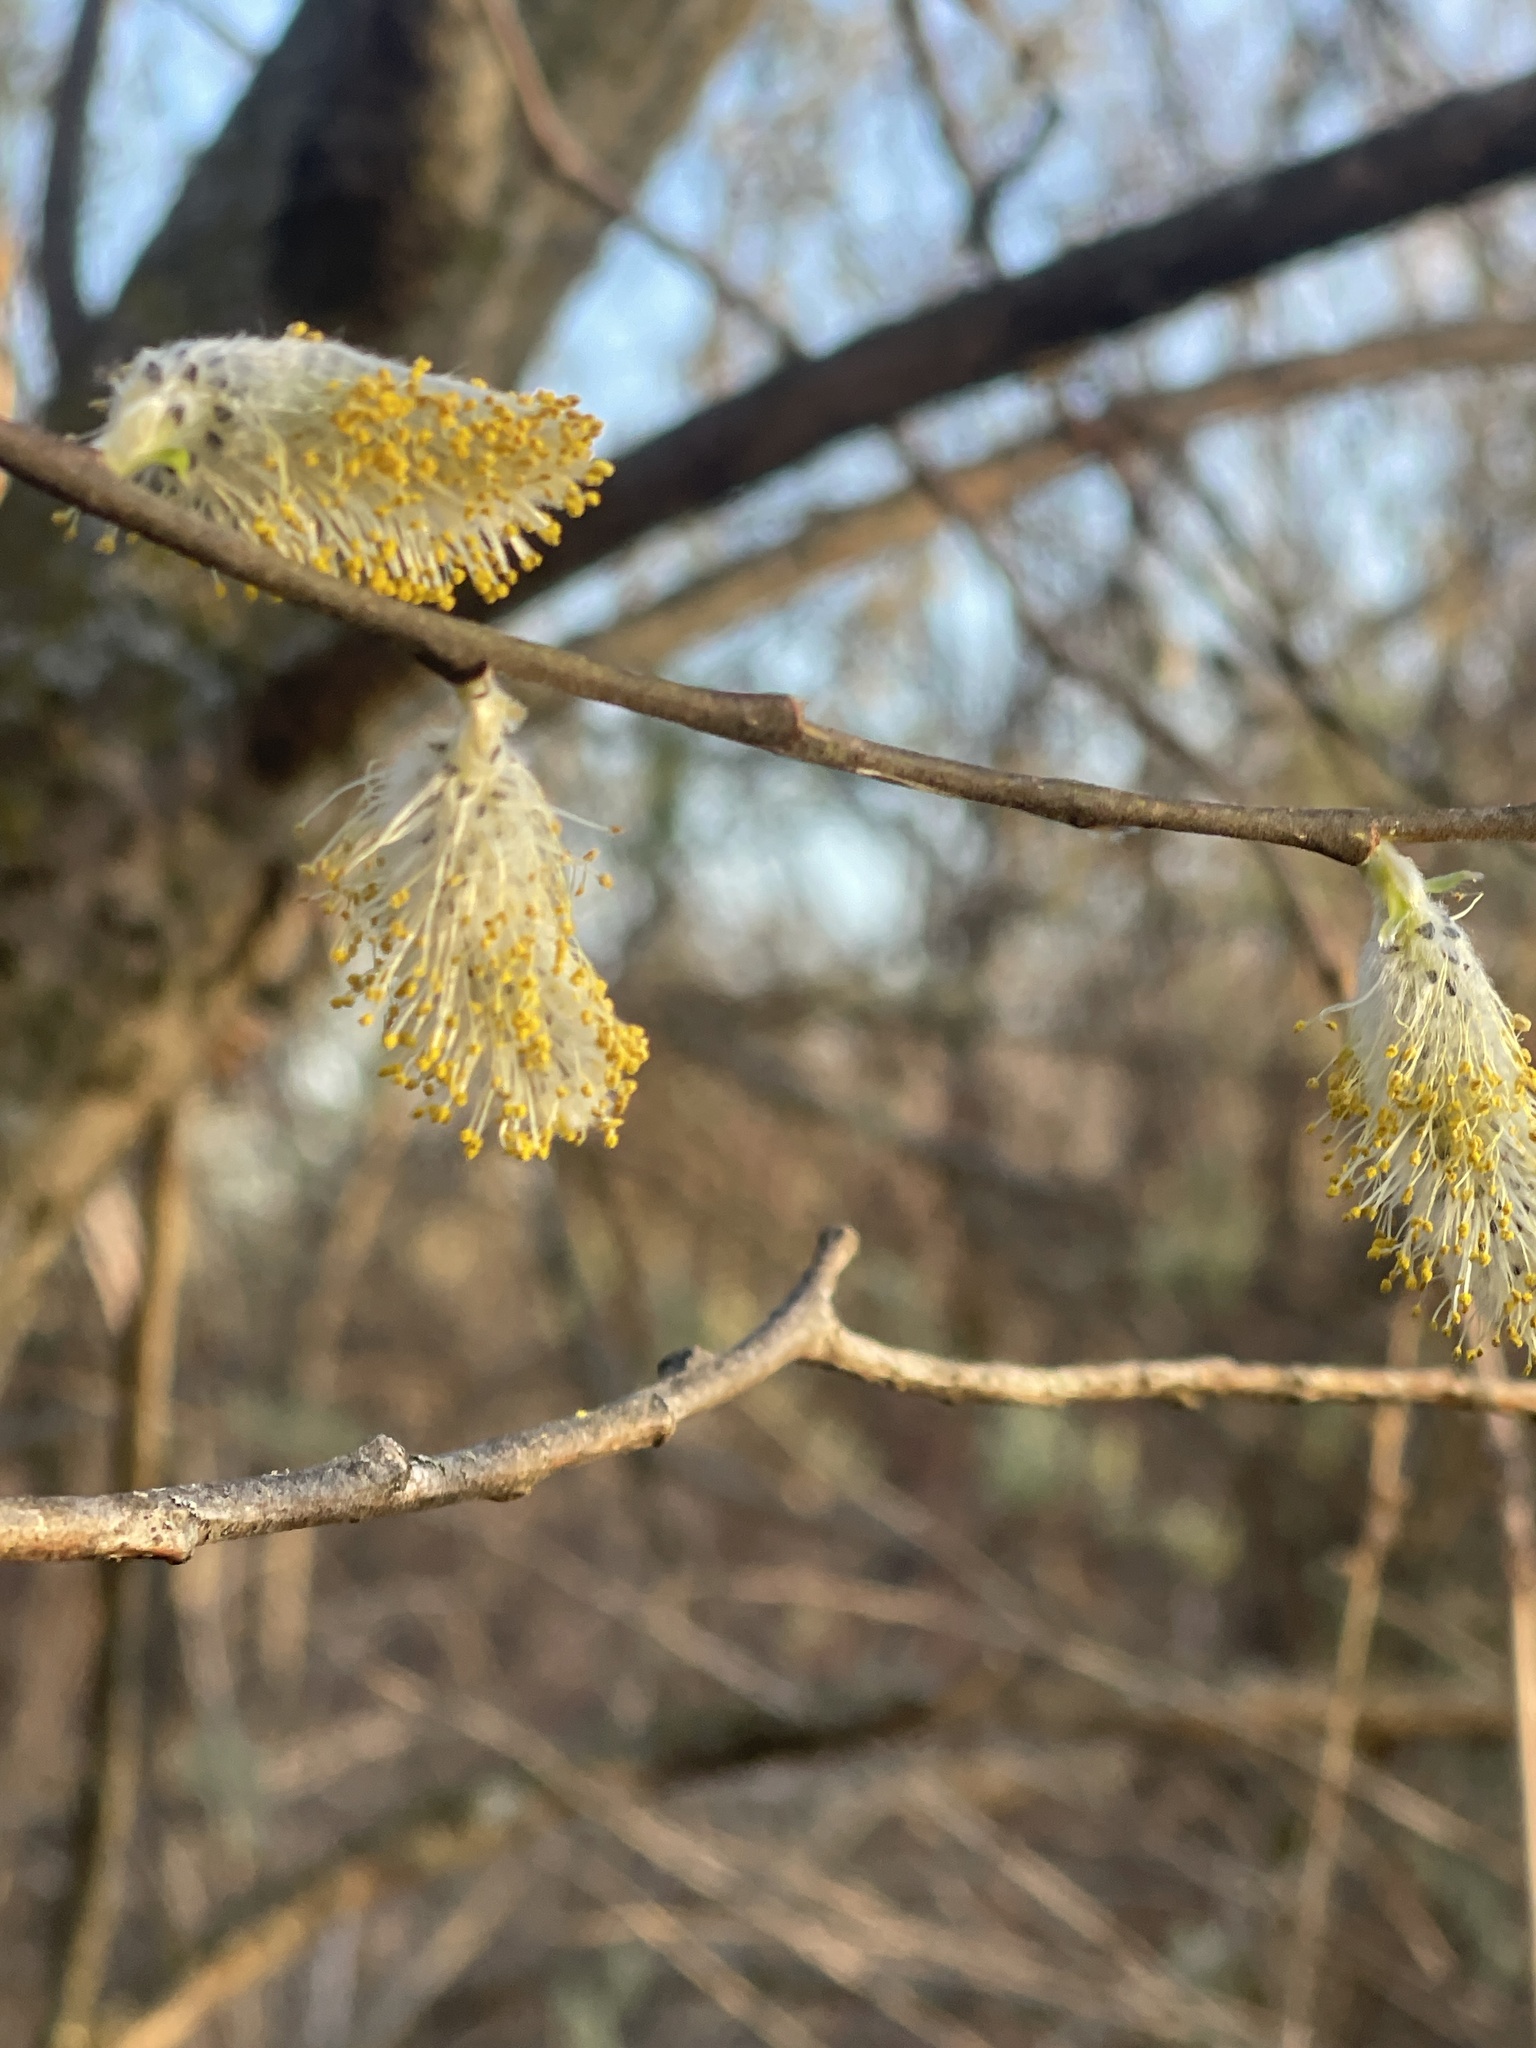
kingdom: Plantae
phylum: Tracheophyta
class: Magnoliopsida
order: Malpighiales
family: Salicaceae
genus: Salix
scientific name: Salix discolor
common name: Glaucous willow
